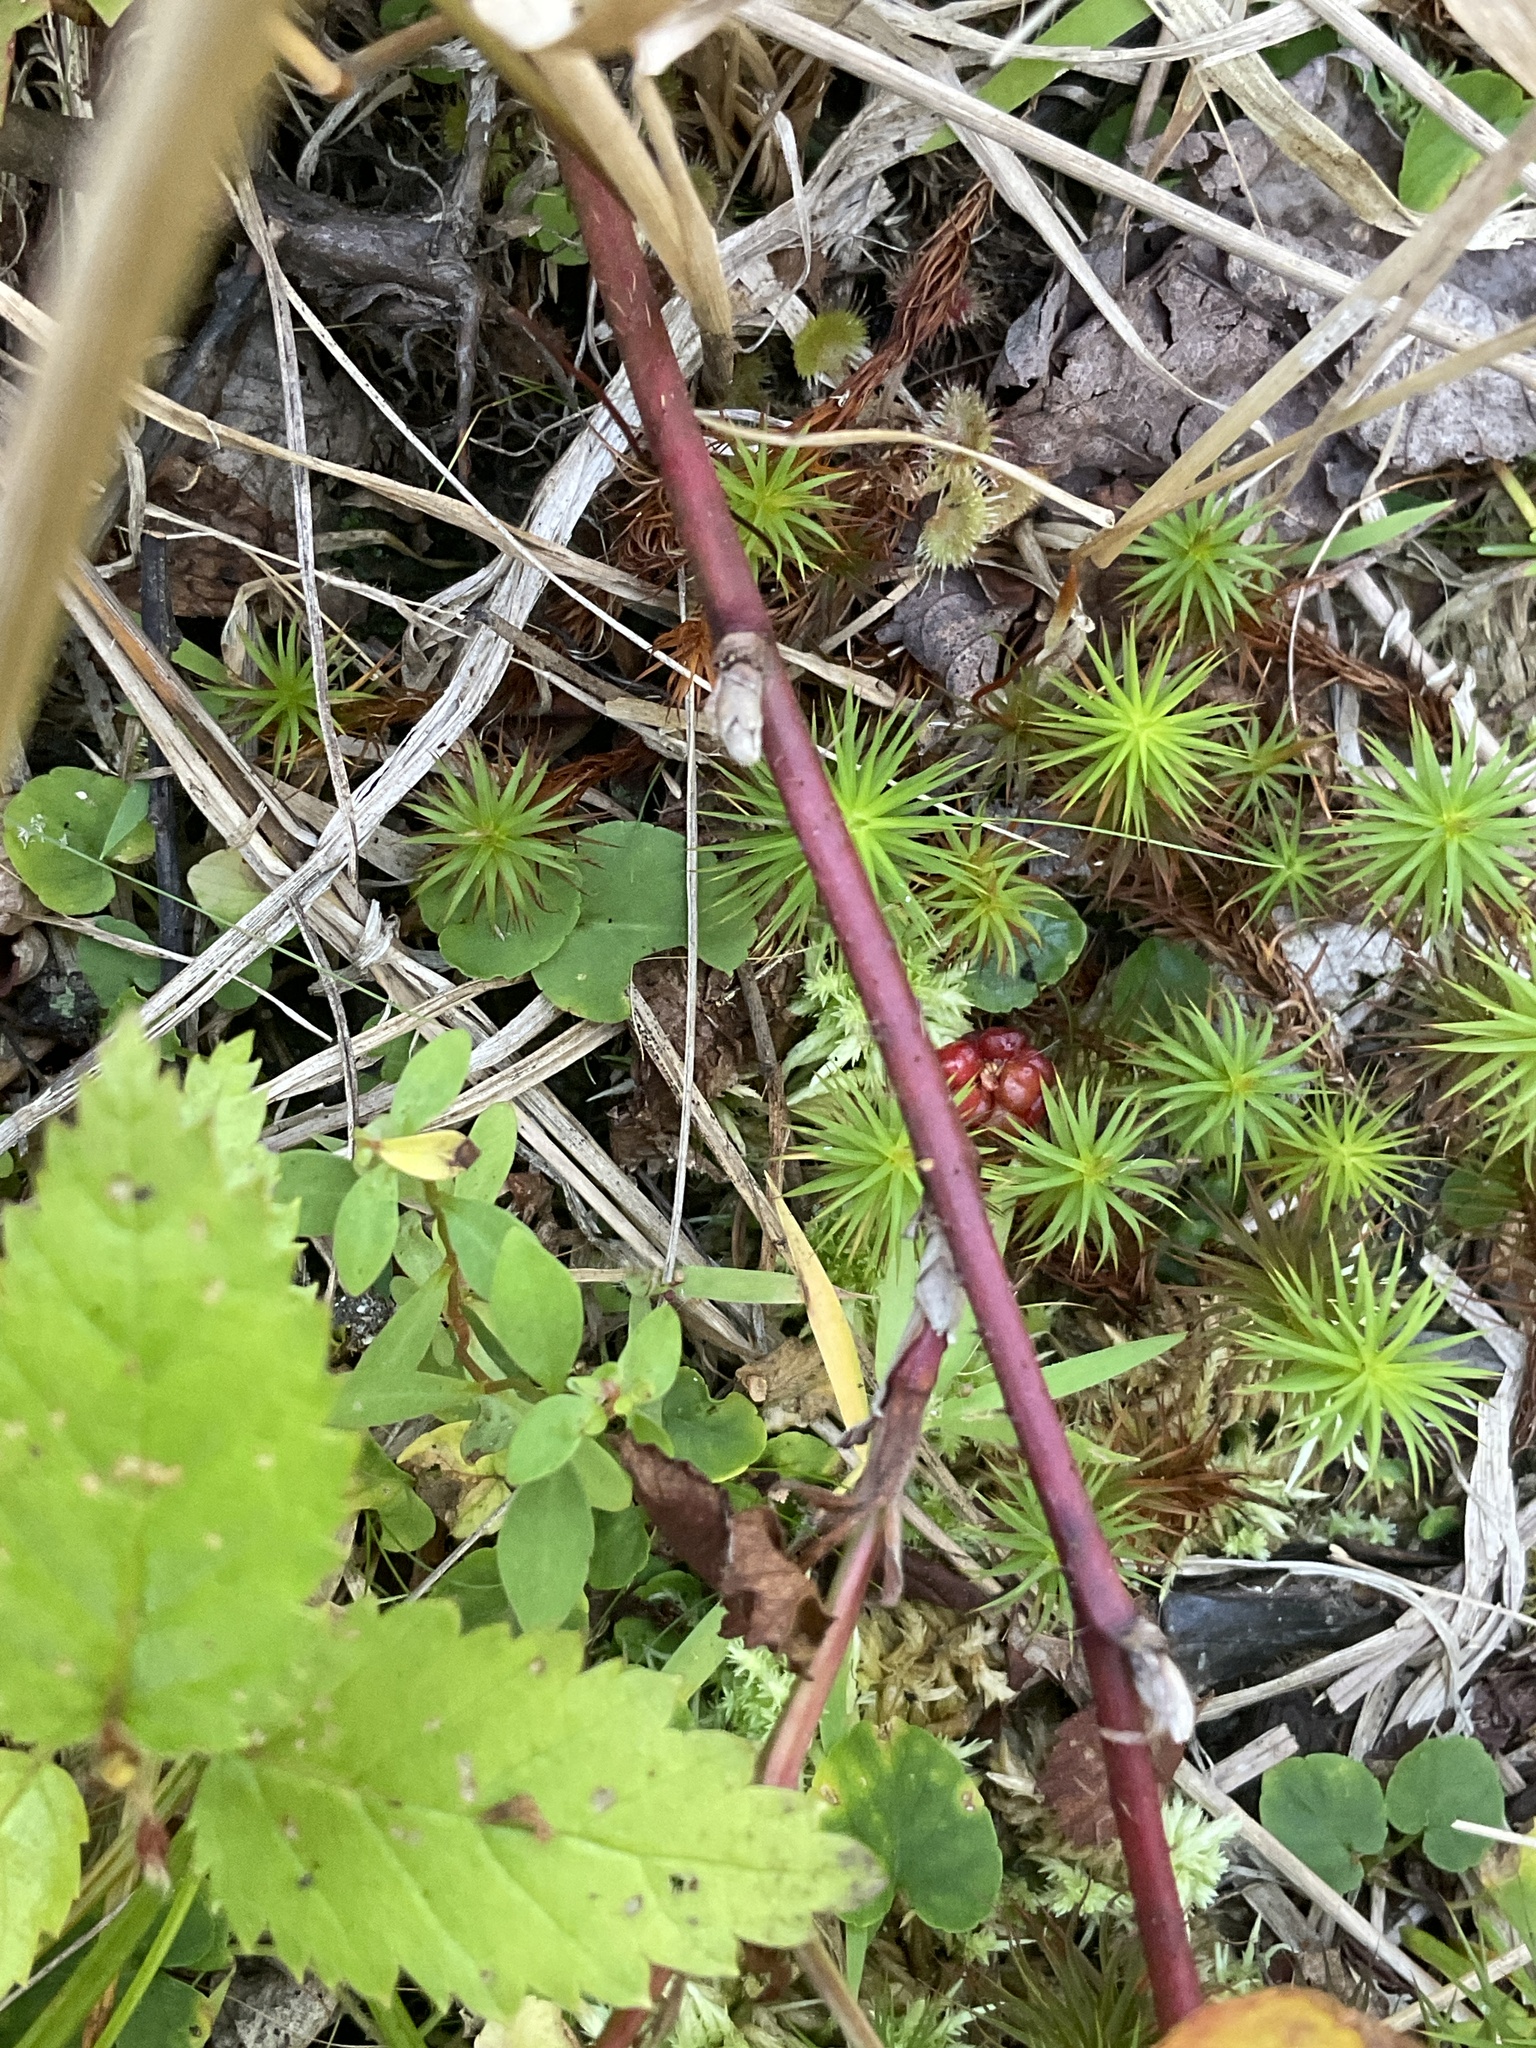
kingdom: Plantae
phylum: Tracheophyta
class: Magnoliopsida
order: Rosales
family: Rosaceae
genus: Rubus
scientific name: Rubus canadensis
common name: Smooth blackberry
